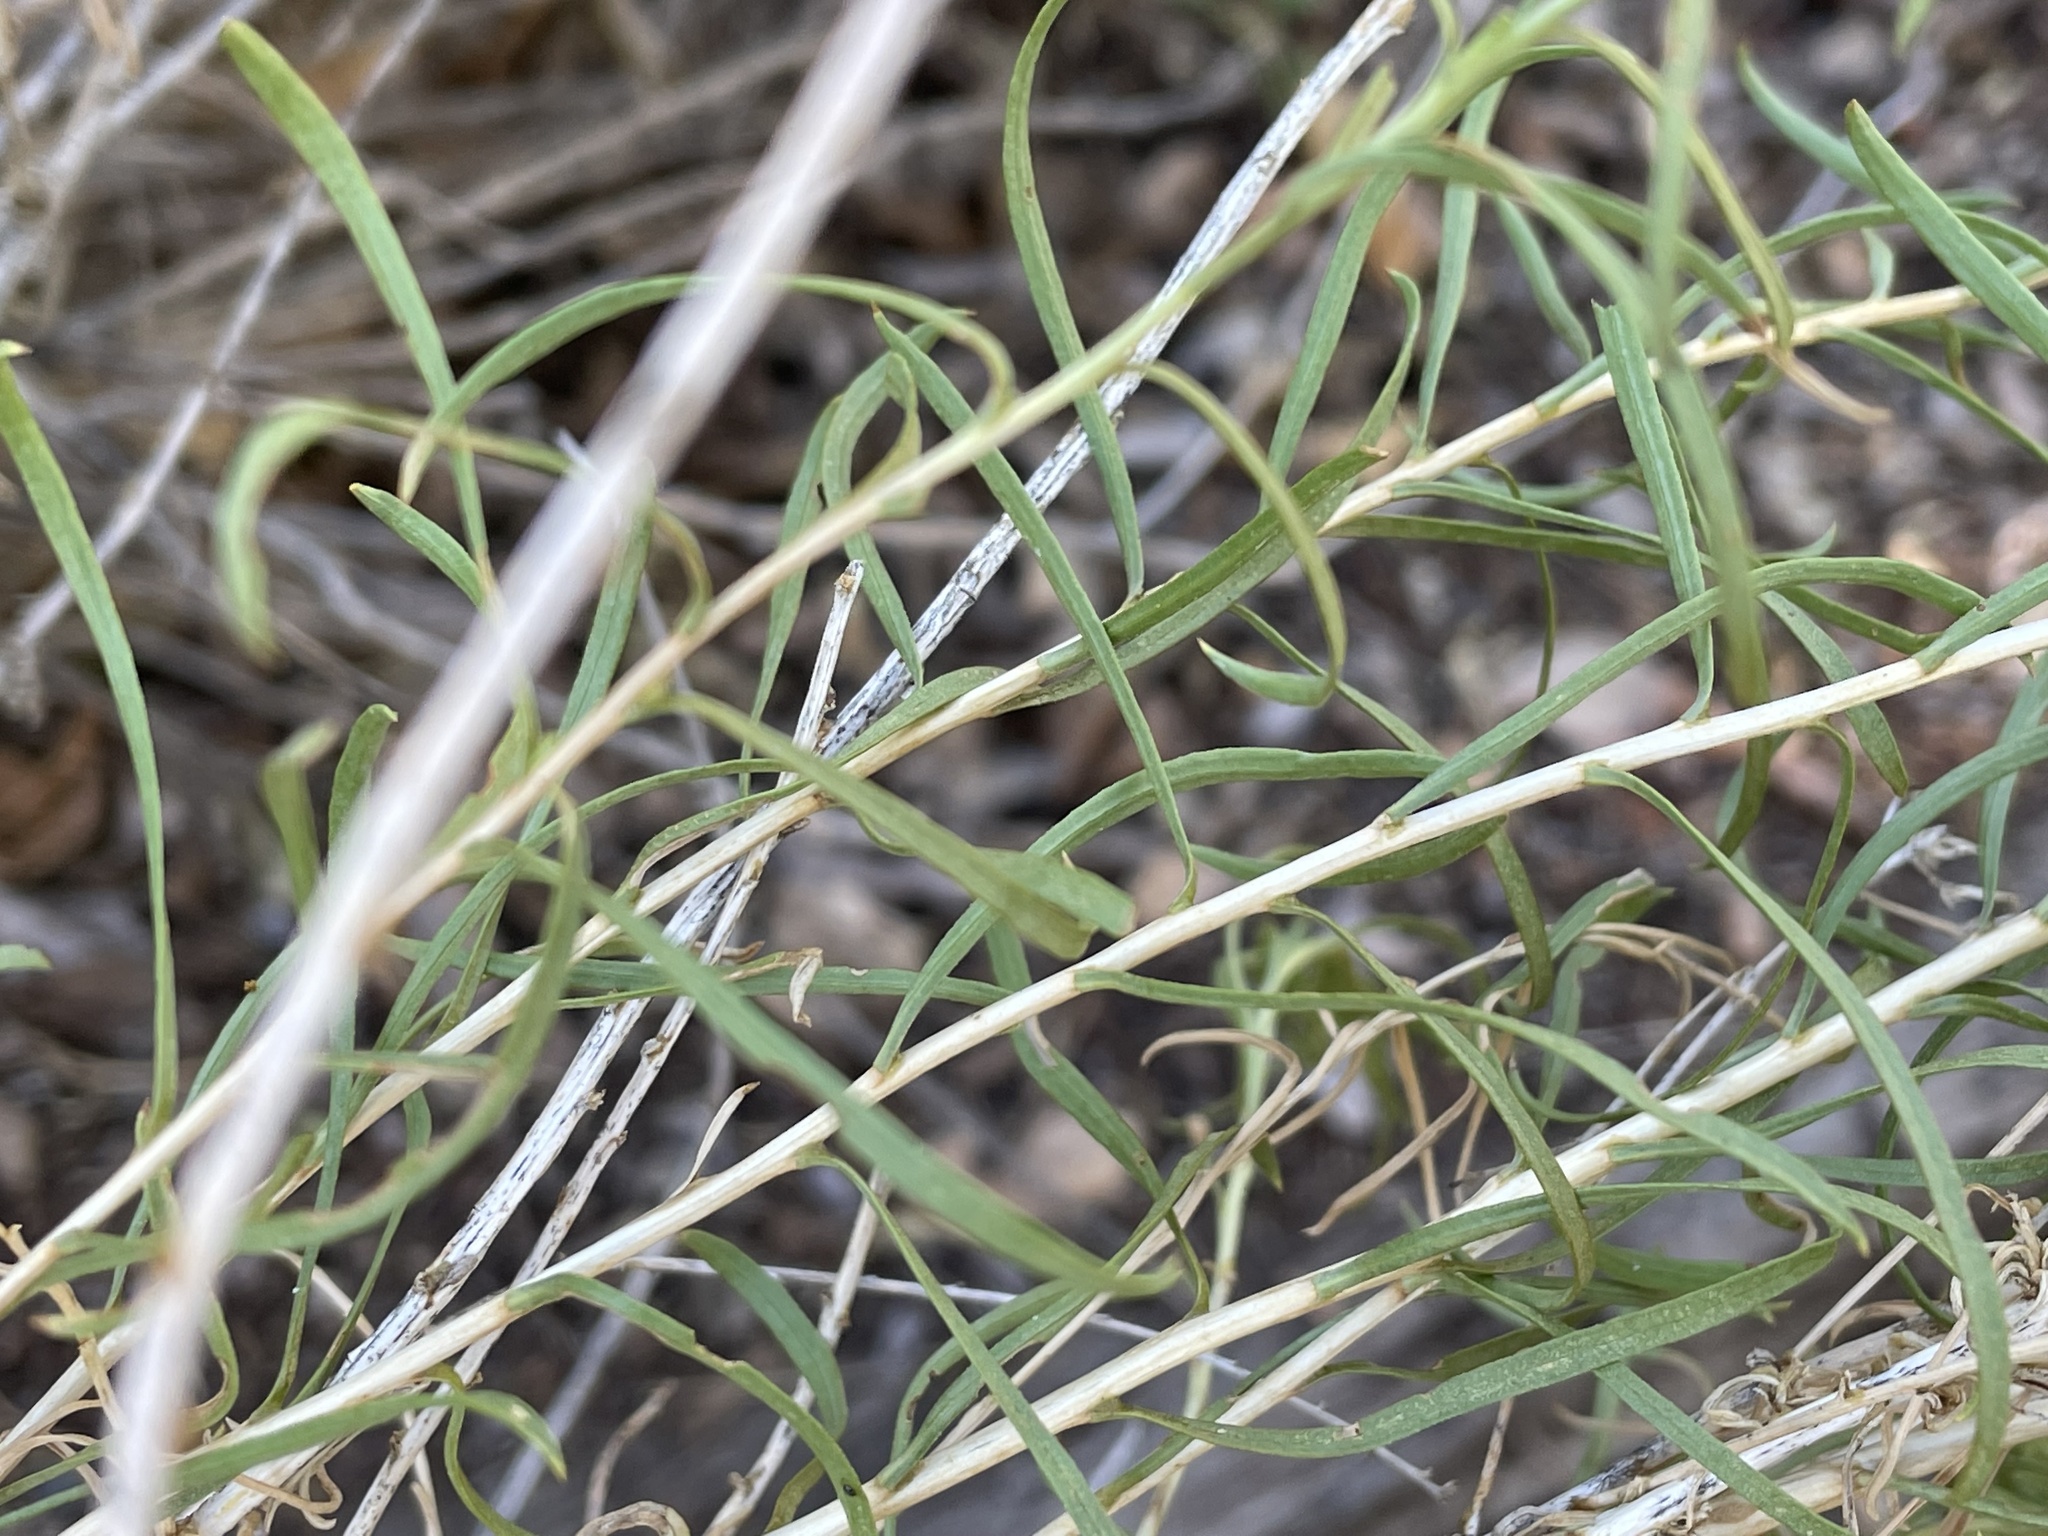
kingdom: Plantae
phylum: Tracheophyta
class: Magnoliopsida
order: Asterales
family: Asteraceae
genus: Chrysothamnus
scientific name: Chrysothamnus viscidiflorus
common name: Yellow rabbitbrush
